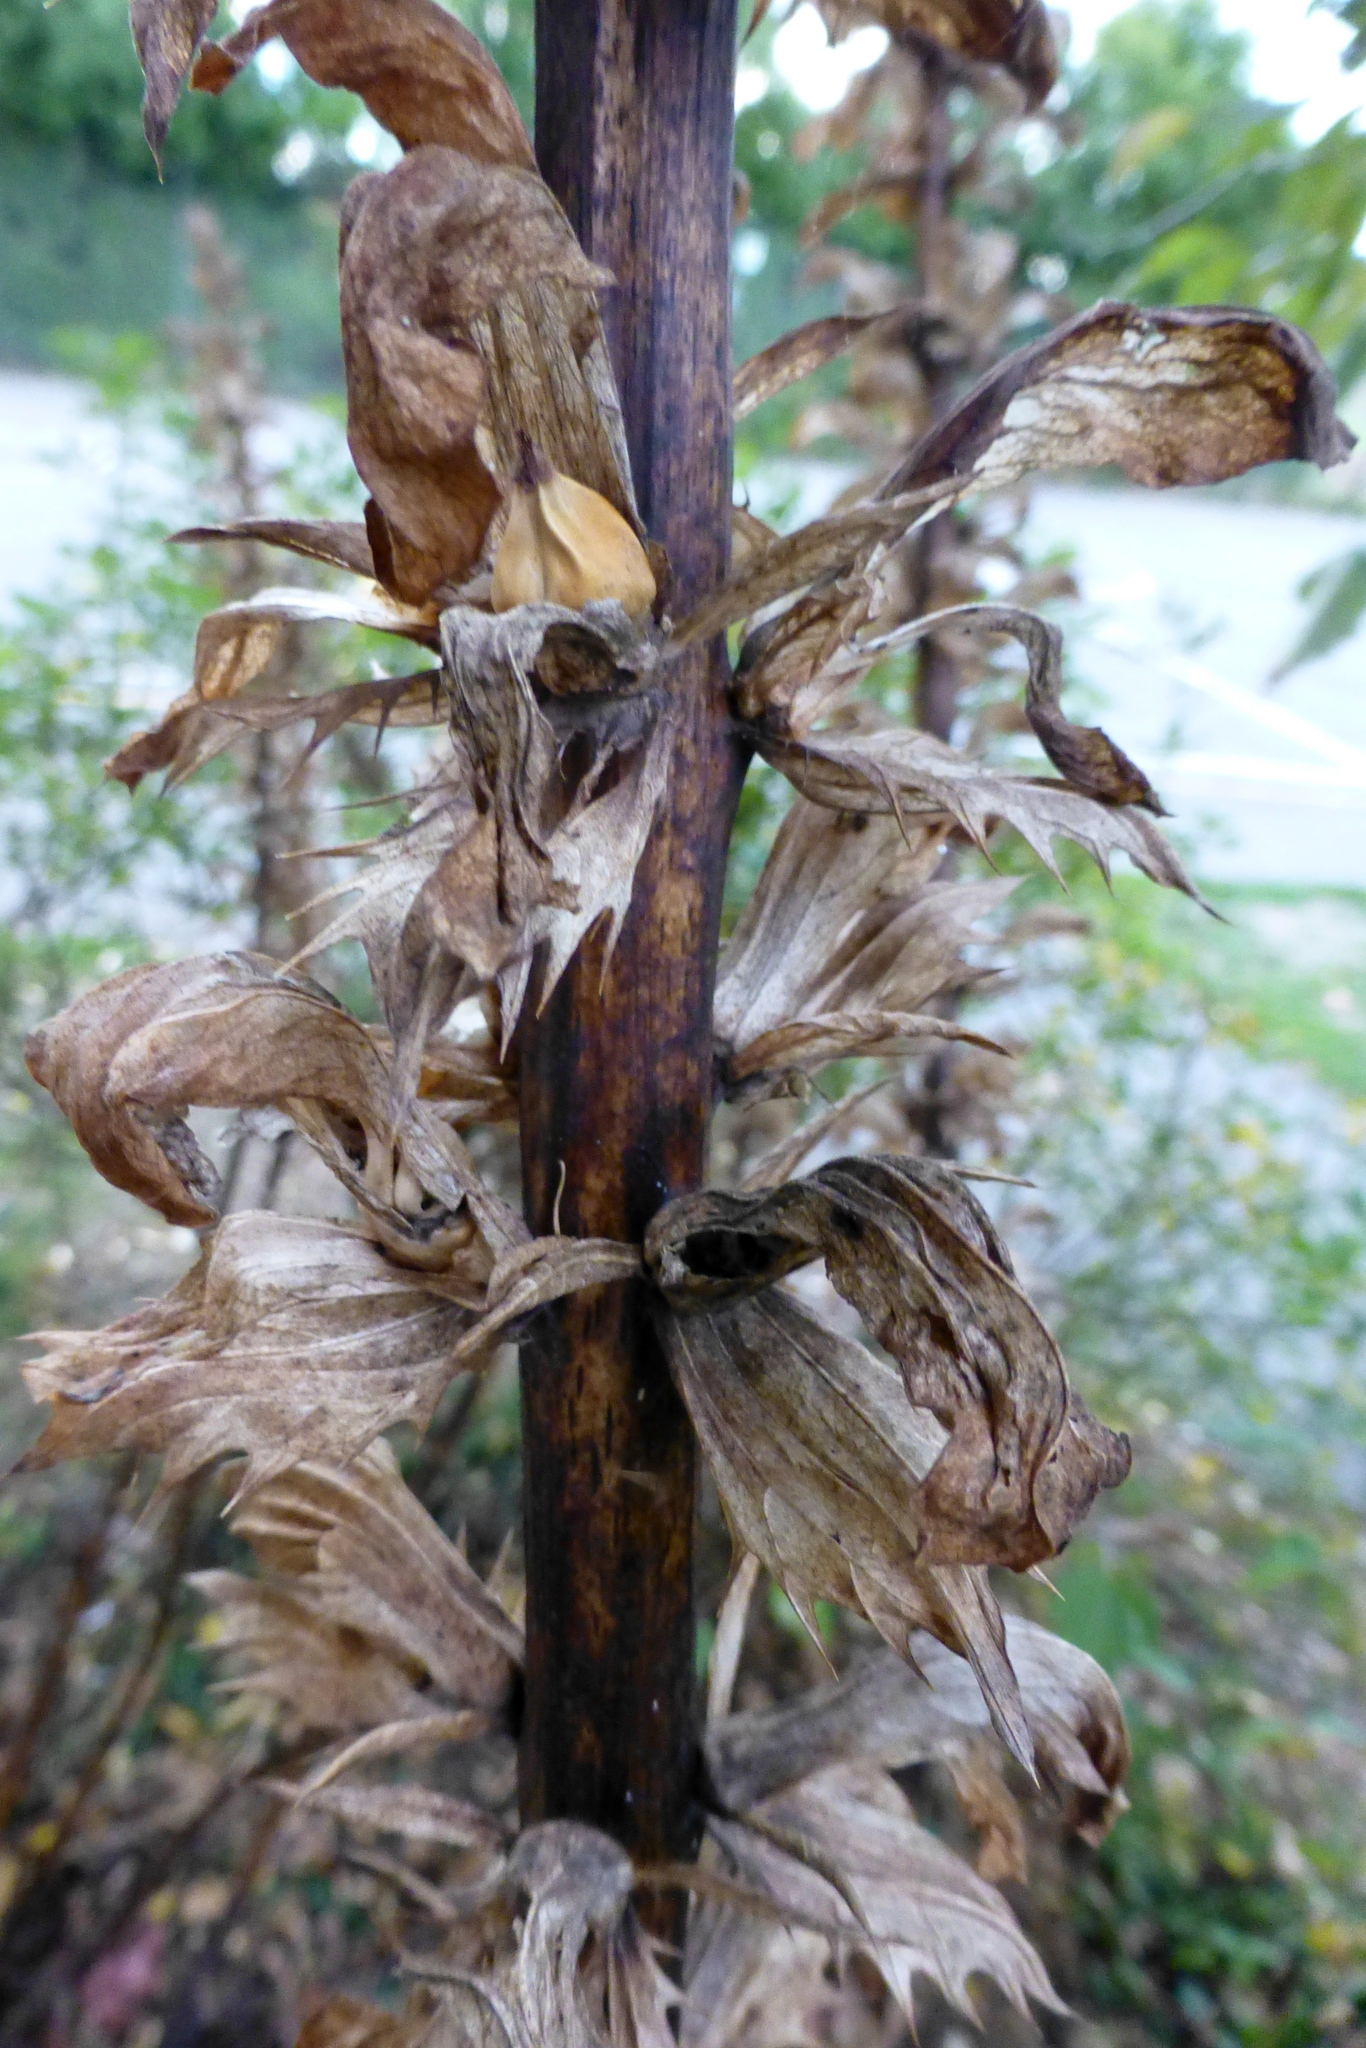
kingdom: Plantae
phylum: Tracheophyta
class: Magnoliopsida
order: Lamiales
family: Acanthaceae
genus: Acanthus
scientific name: Acanthus mollis
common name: Bear's-breech
